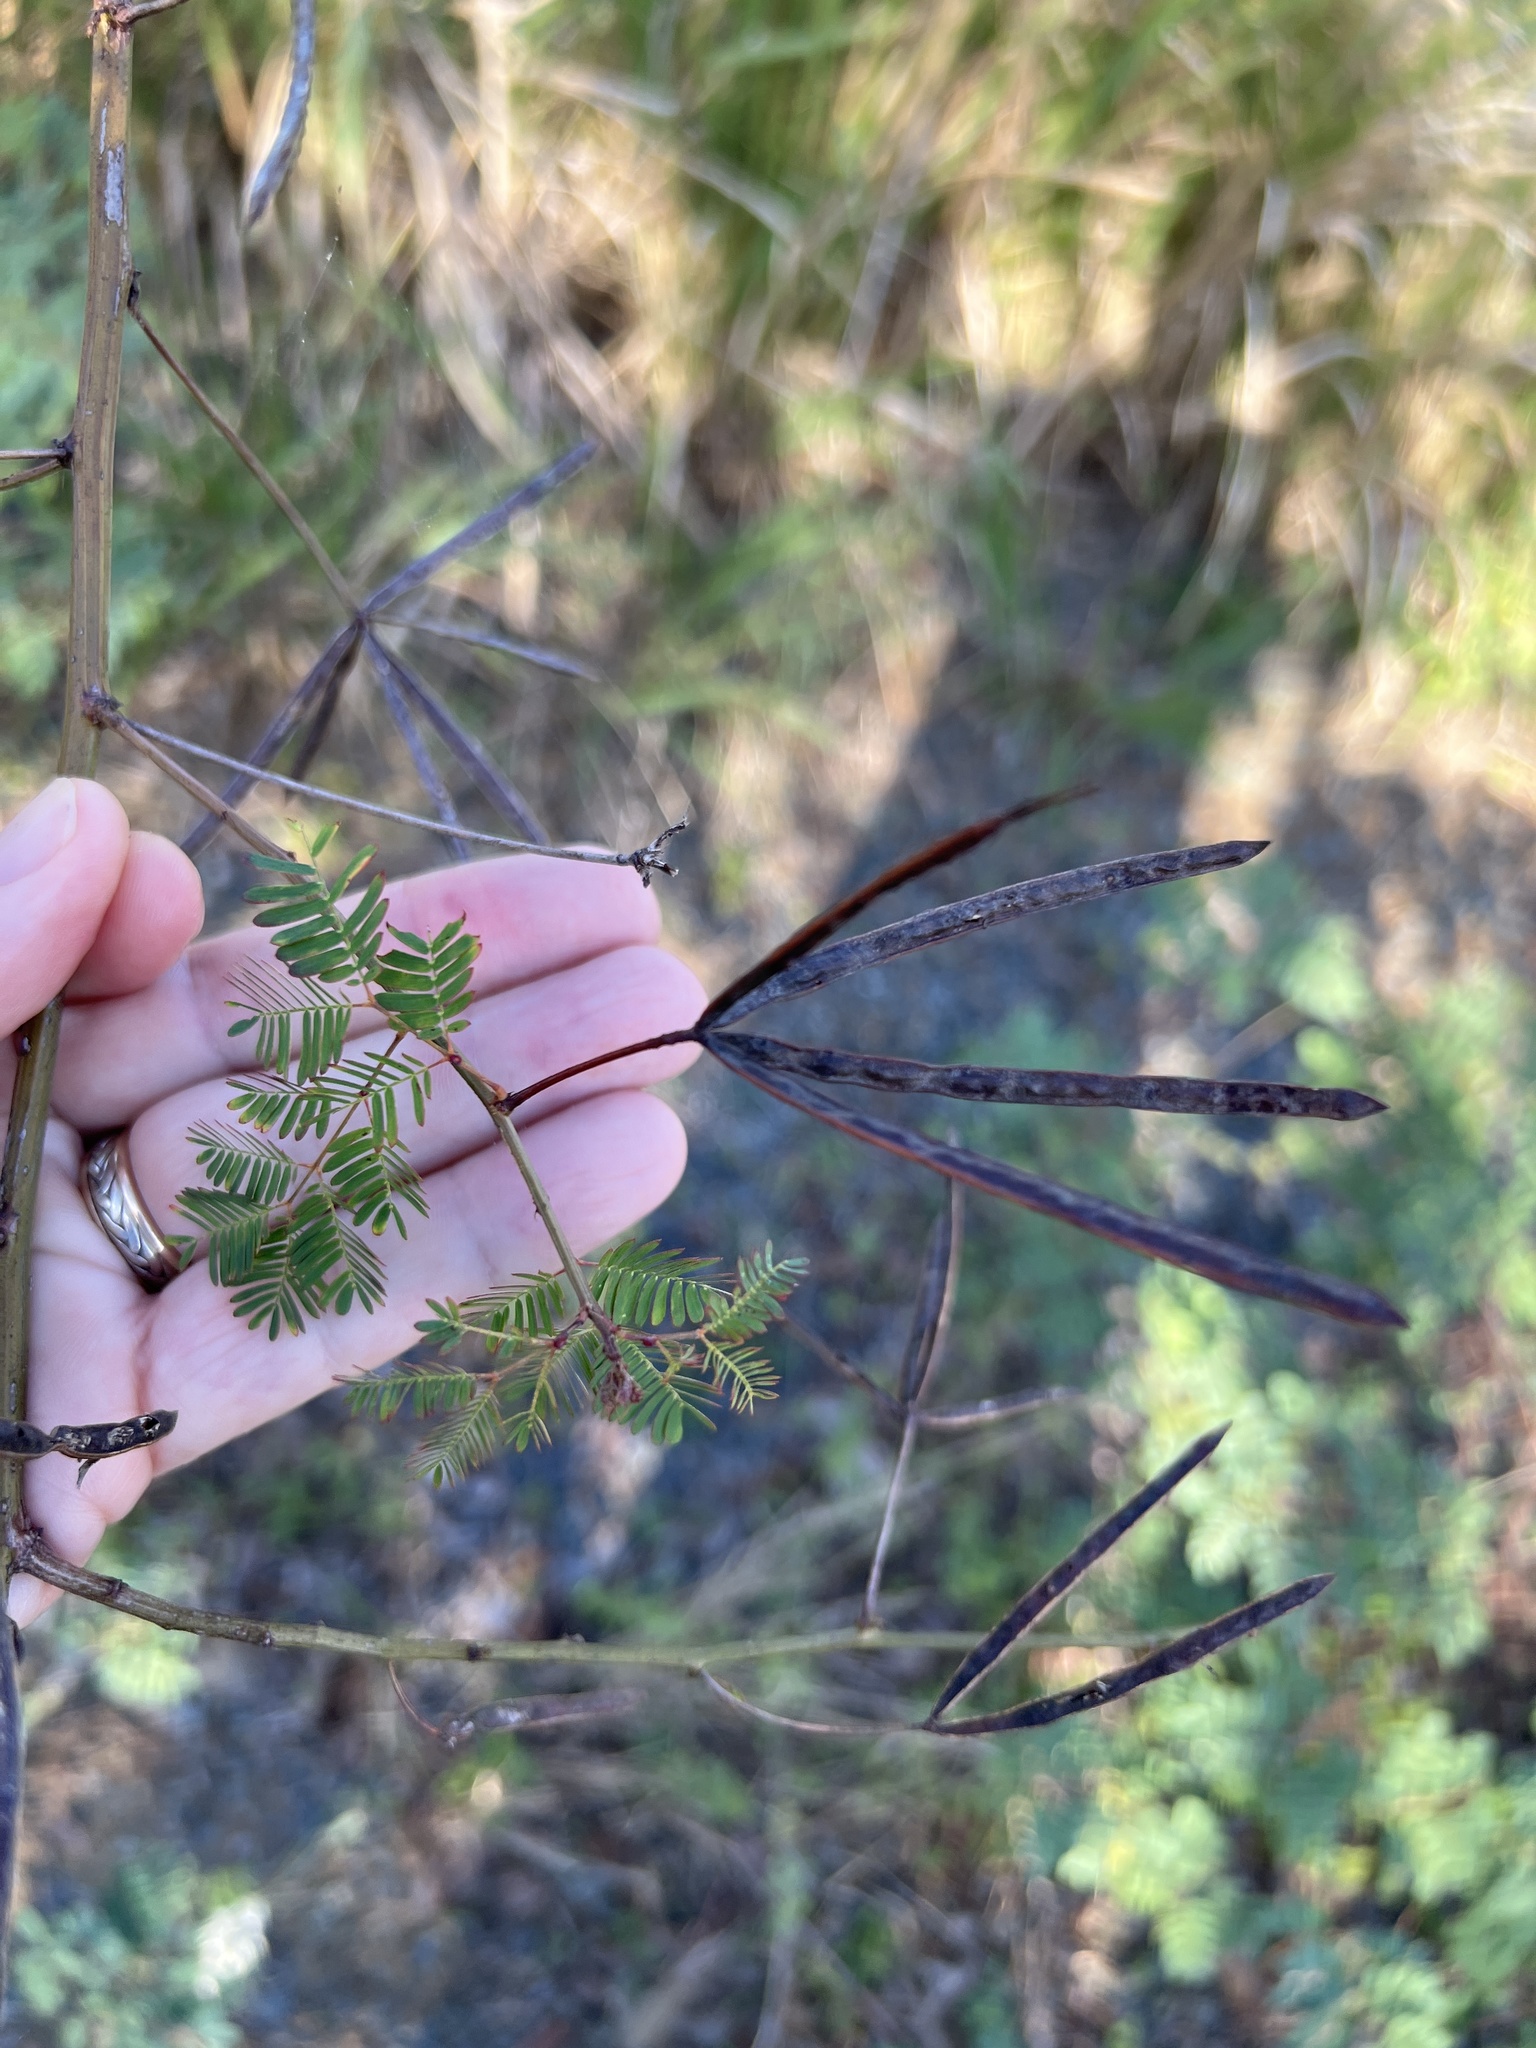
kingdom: Plantae
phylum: Tracheophyta
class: Magnoliopsida
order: Fabales
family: Fabaceae
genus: Desmanthus
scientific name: Desmanthus virgatus
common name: Wild tantan
